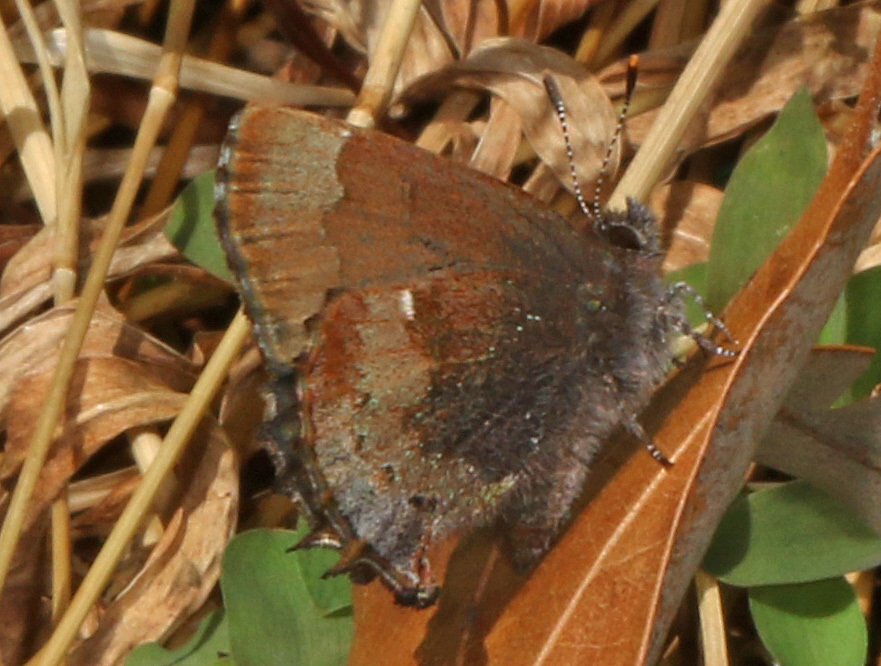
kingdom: Animalia
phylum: Arthropoda
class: Insecta
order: Lepidoptera
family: Lycaenidae
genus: Incisalia
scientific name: Incisalia henrici
